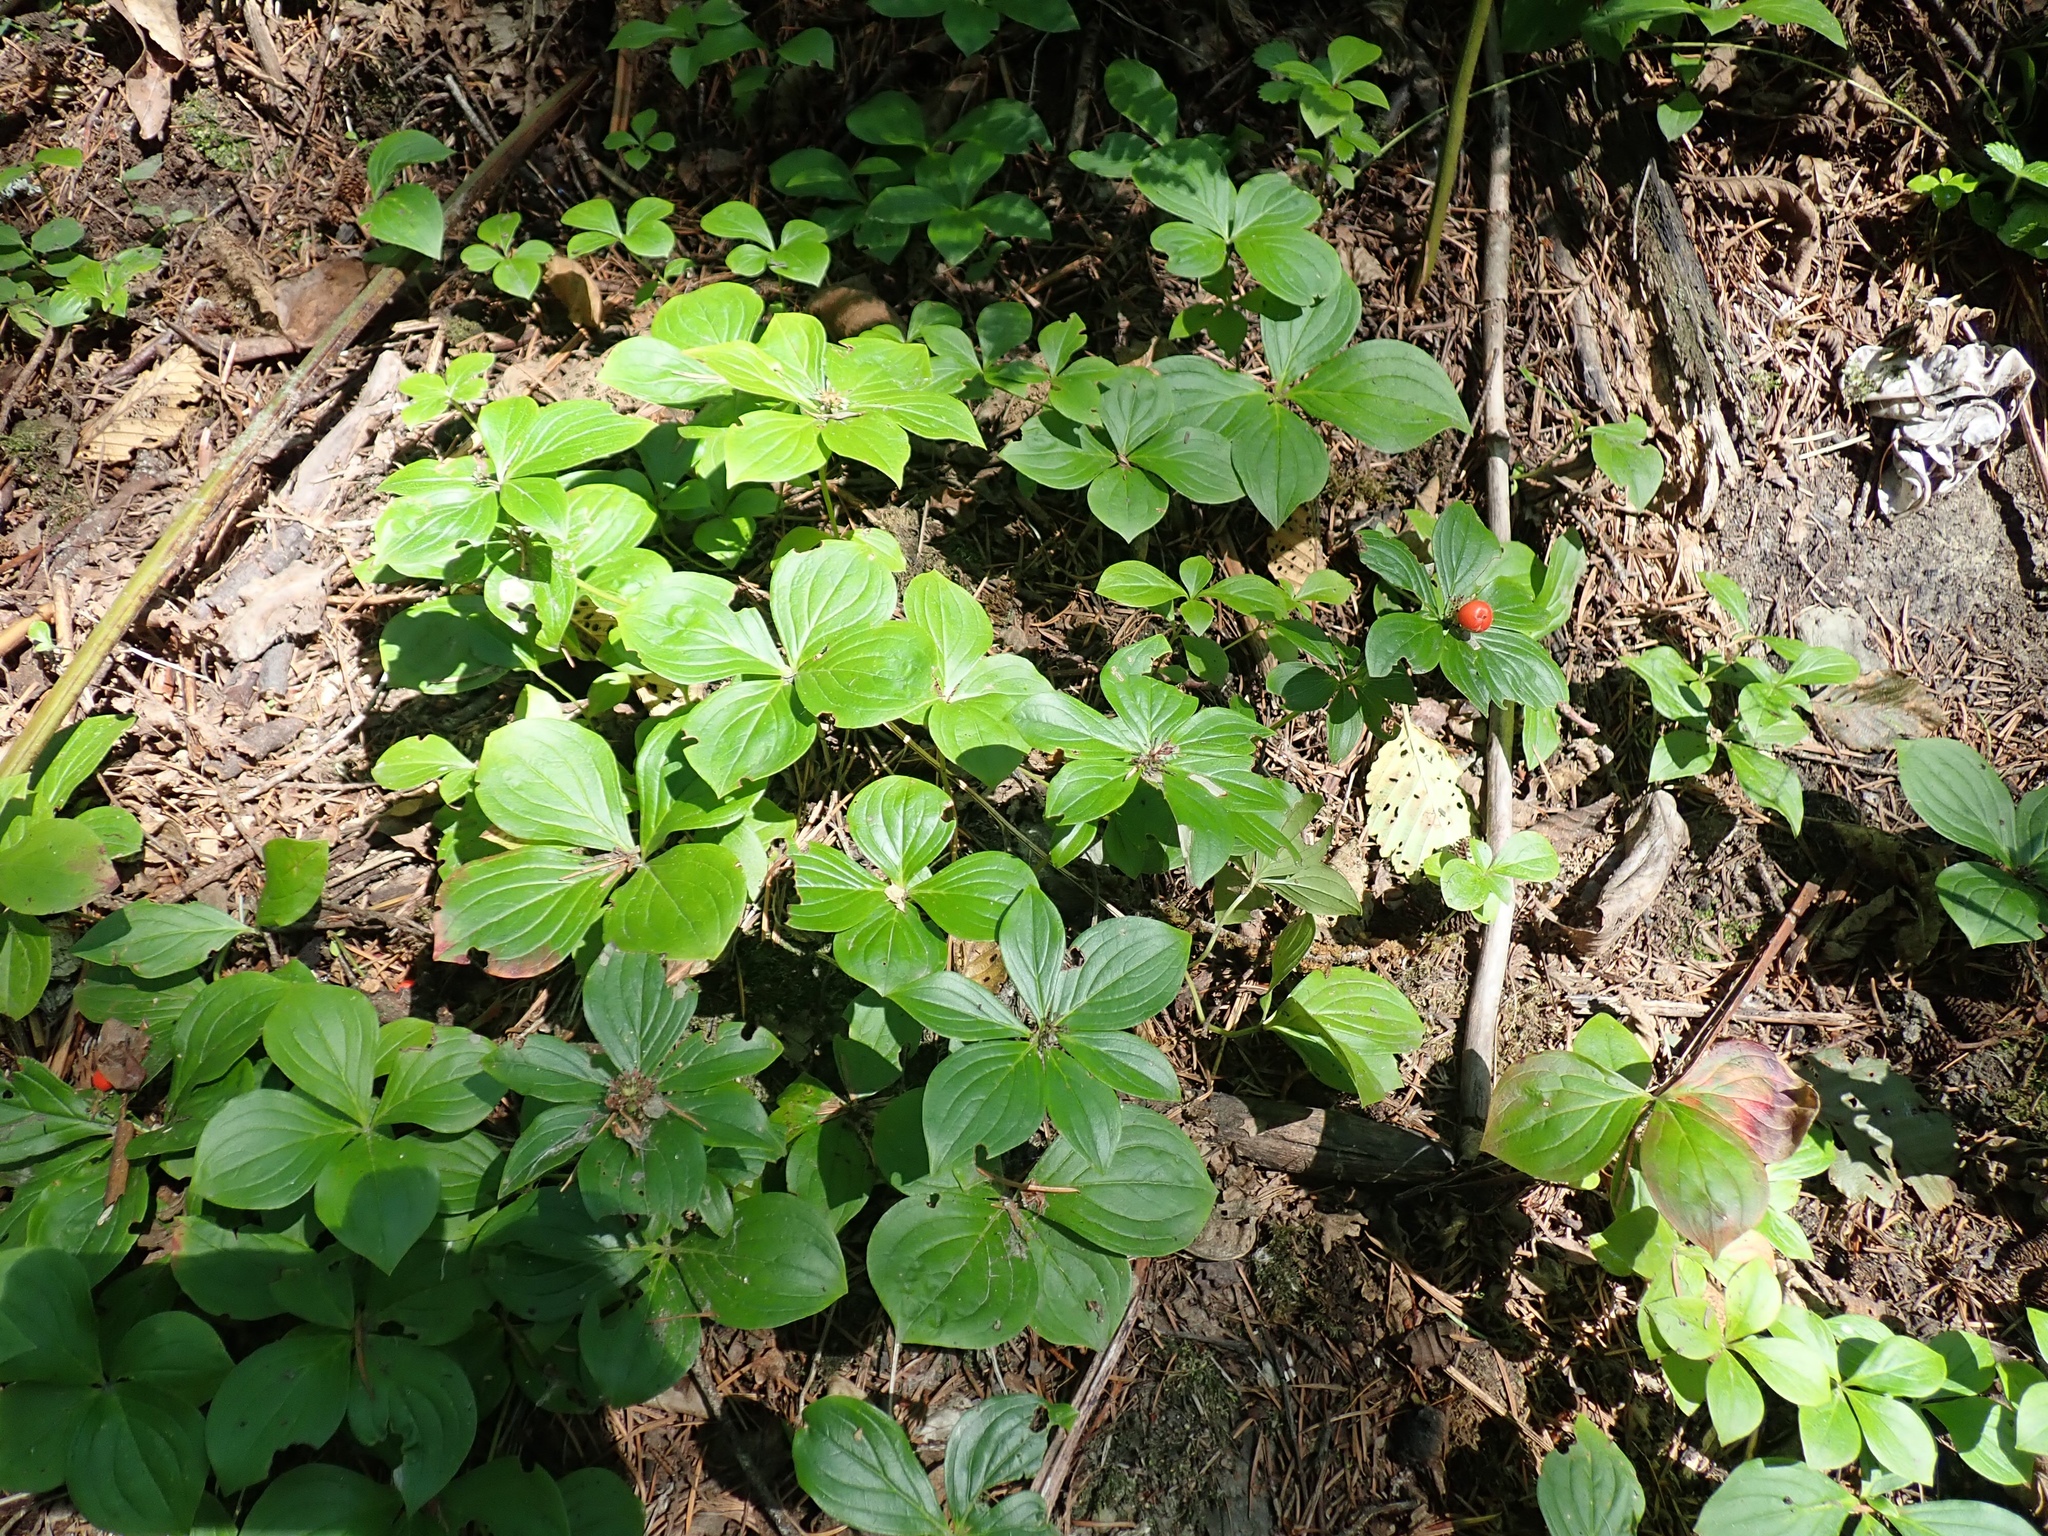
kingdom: Plantae
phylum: Tracheophyta
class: Magnoliopsida
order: Cornales
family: Cornaceae
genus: Cornus
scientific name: Cornus unalaschkensis
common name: Alaska bunchberry
